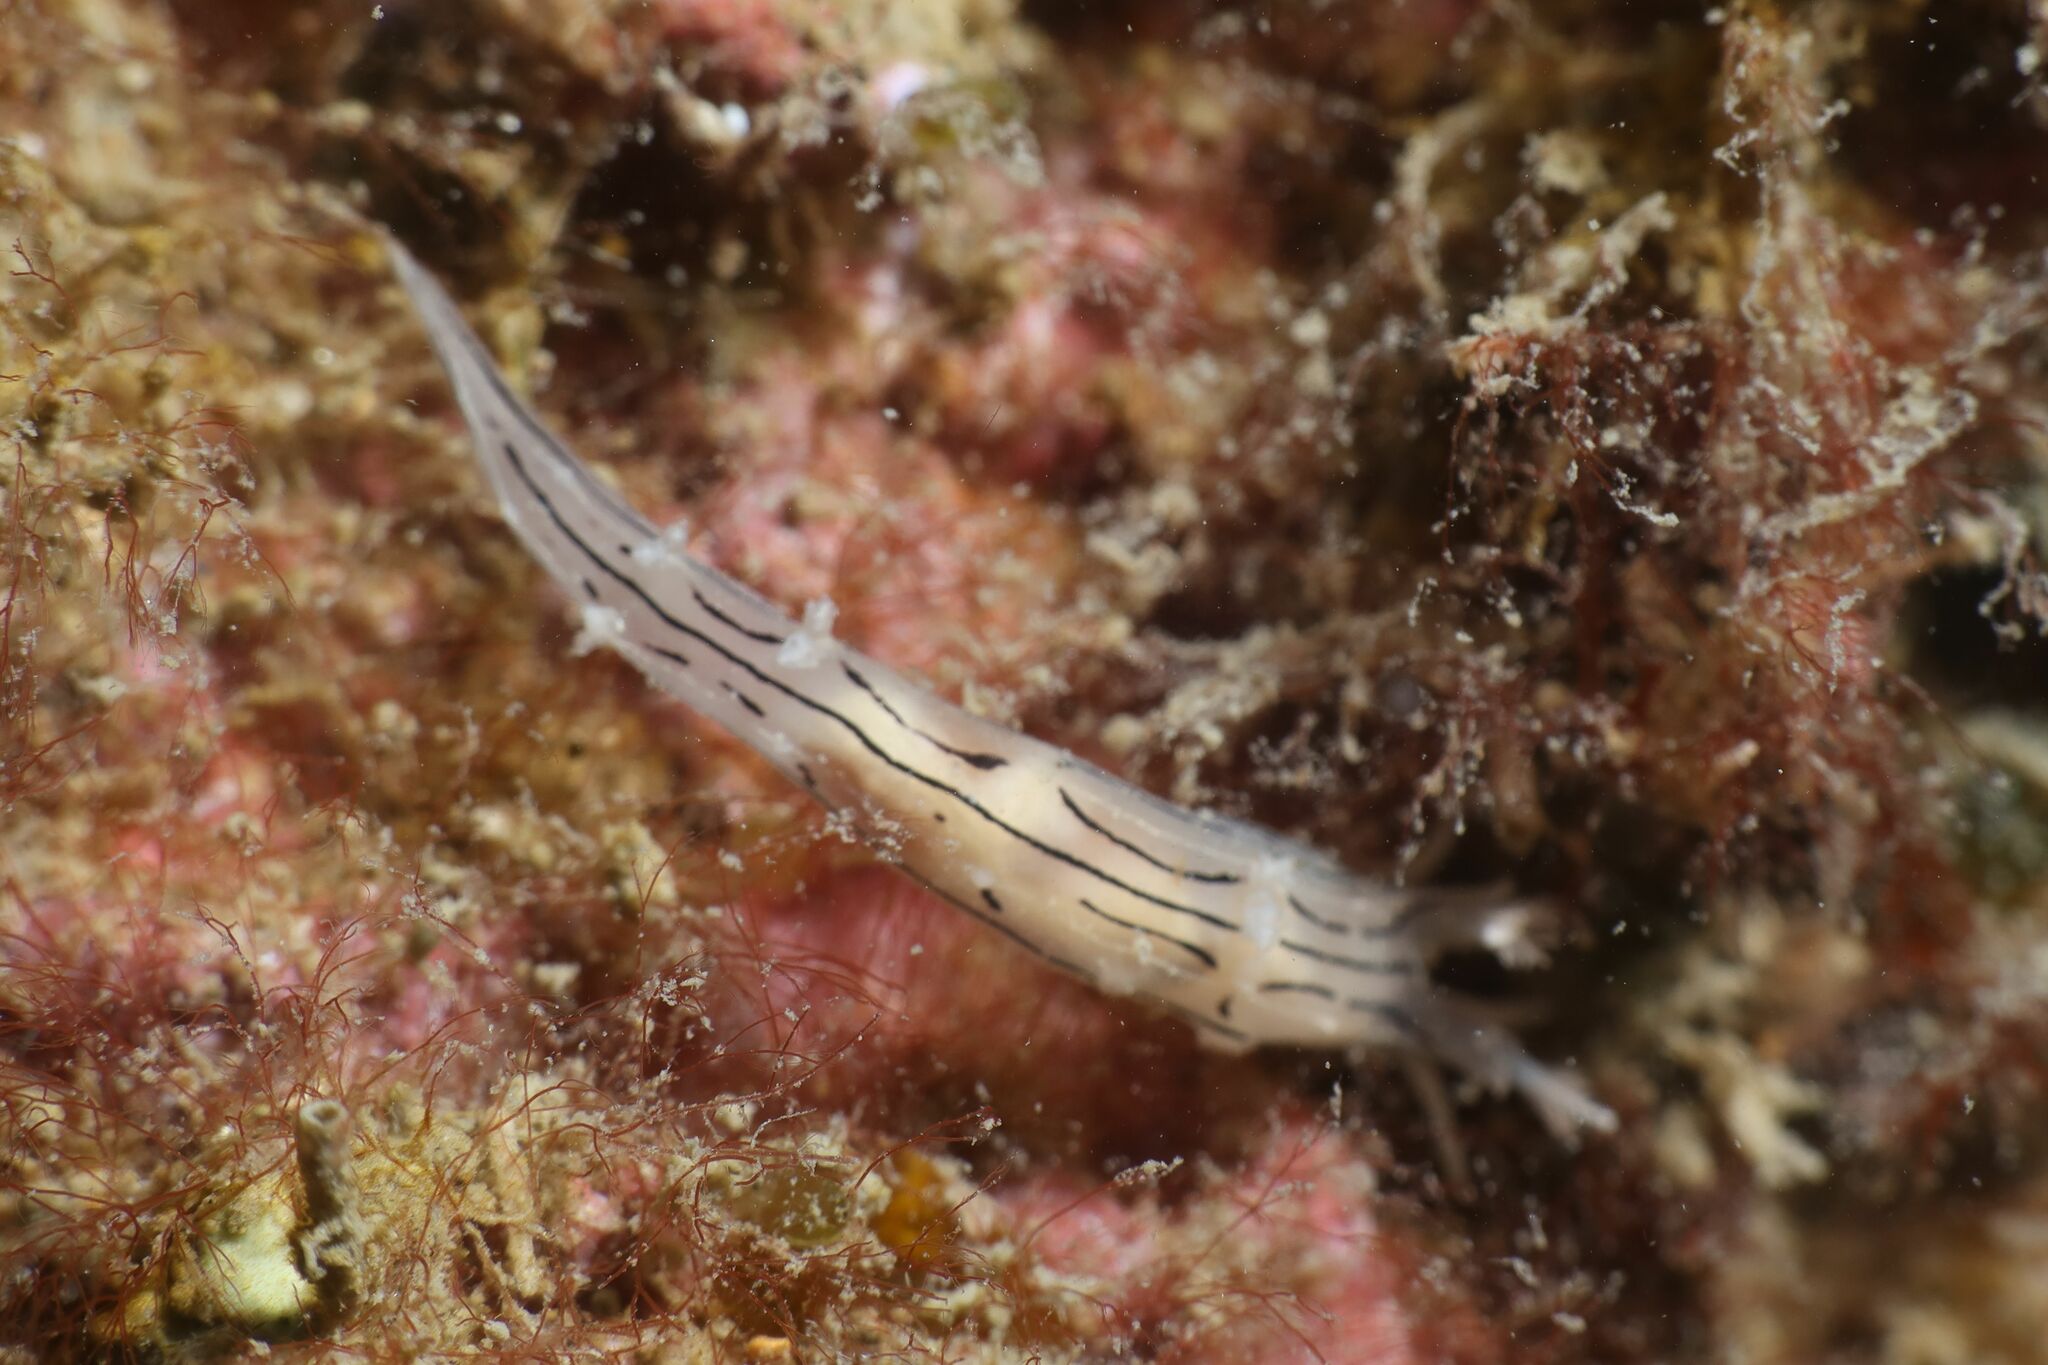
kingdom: Animalia
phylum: Mollusca
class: Gastropoda
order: Nudibranchia
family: Tritoniidae
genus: Duvaucelia
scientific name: Duvaucelia striata
